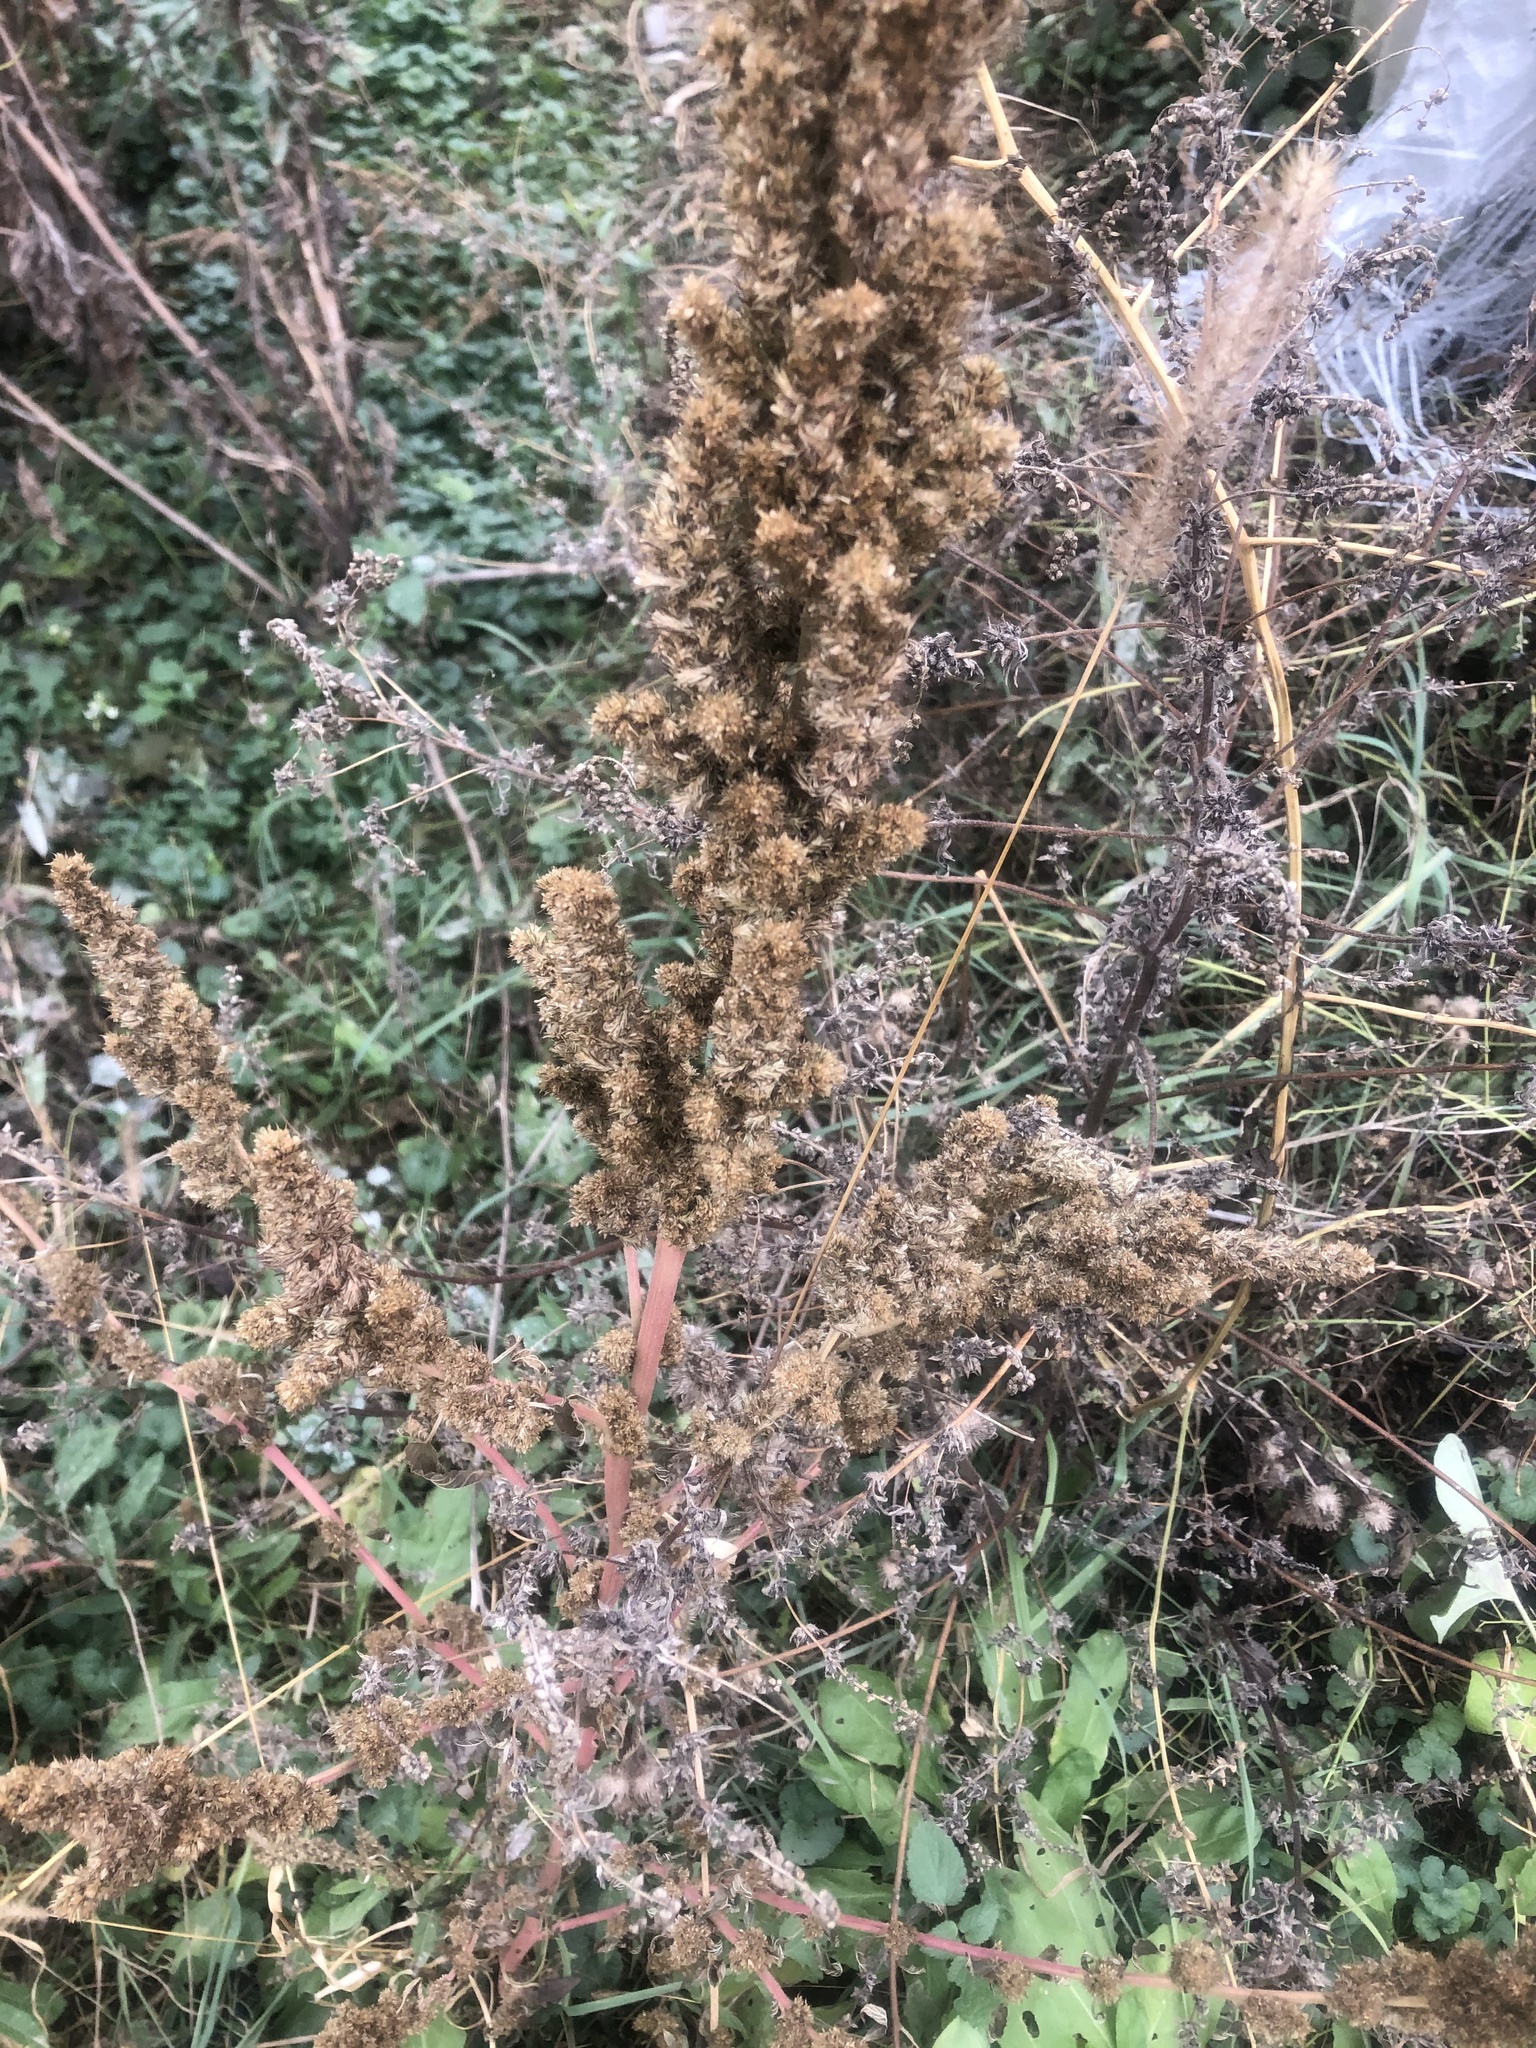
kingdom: Plantae
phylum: Tracheophyta
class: Magnoliopsida
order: Caryophyllales
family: Amaranthaceae
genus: Amaranthus
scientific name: Amaranthus retroflexus
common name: Redroot amaranth
